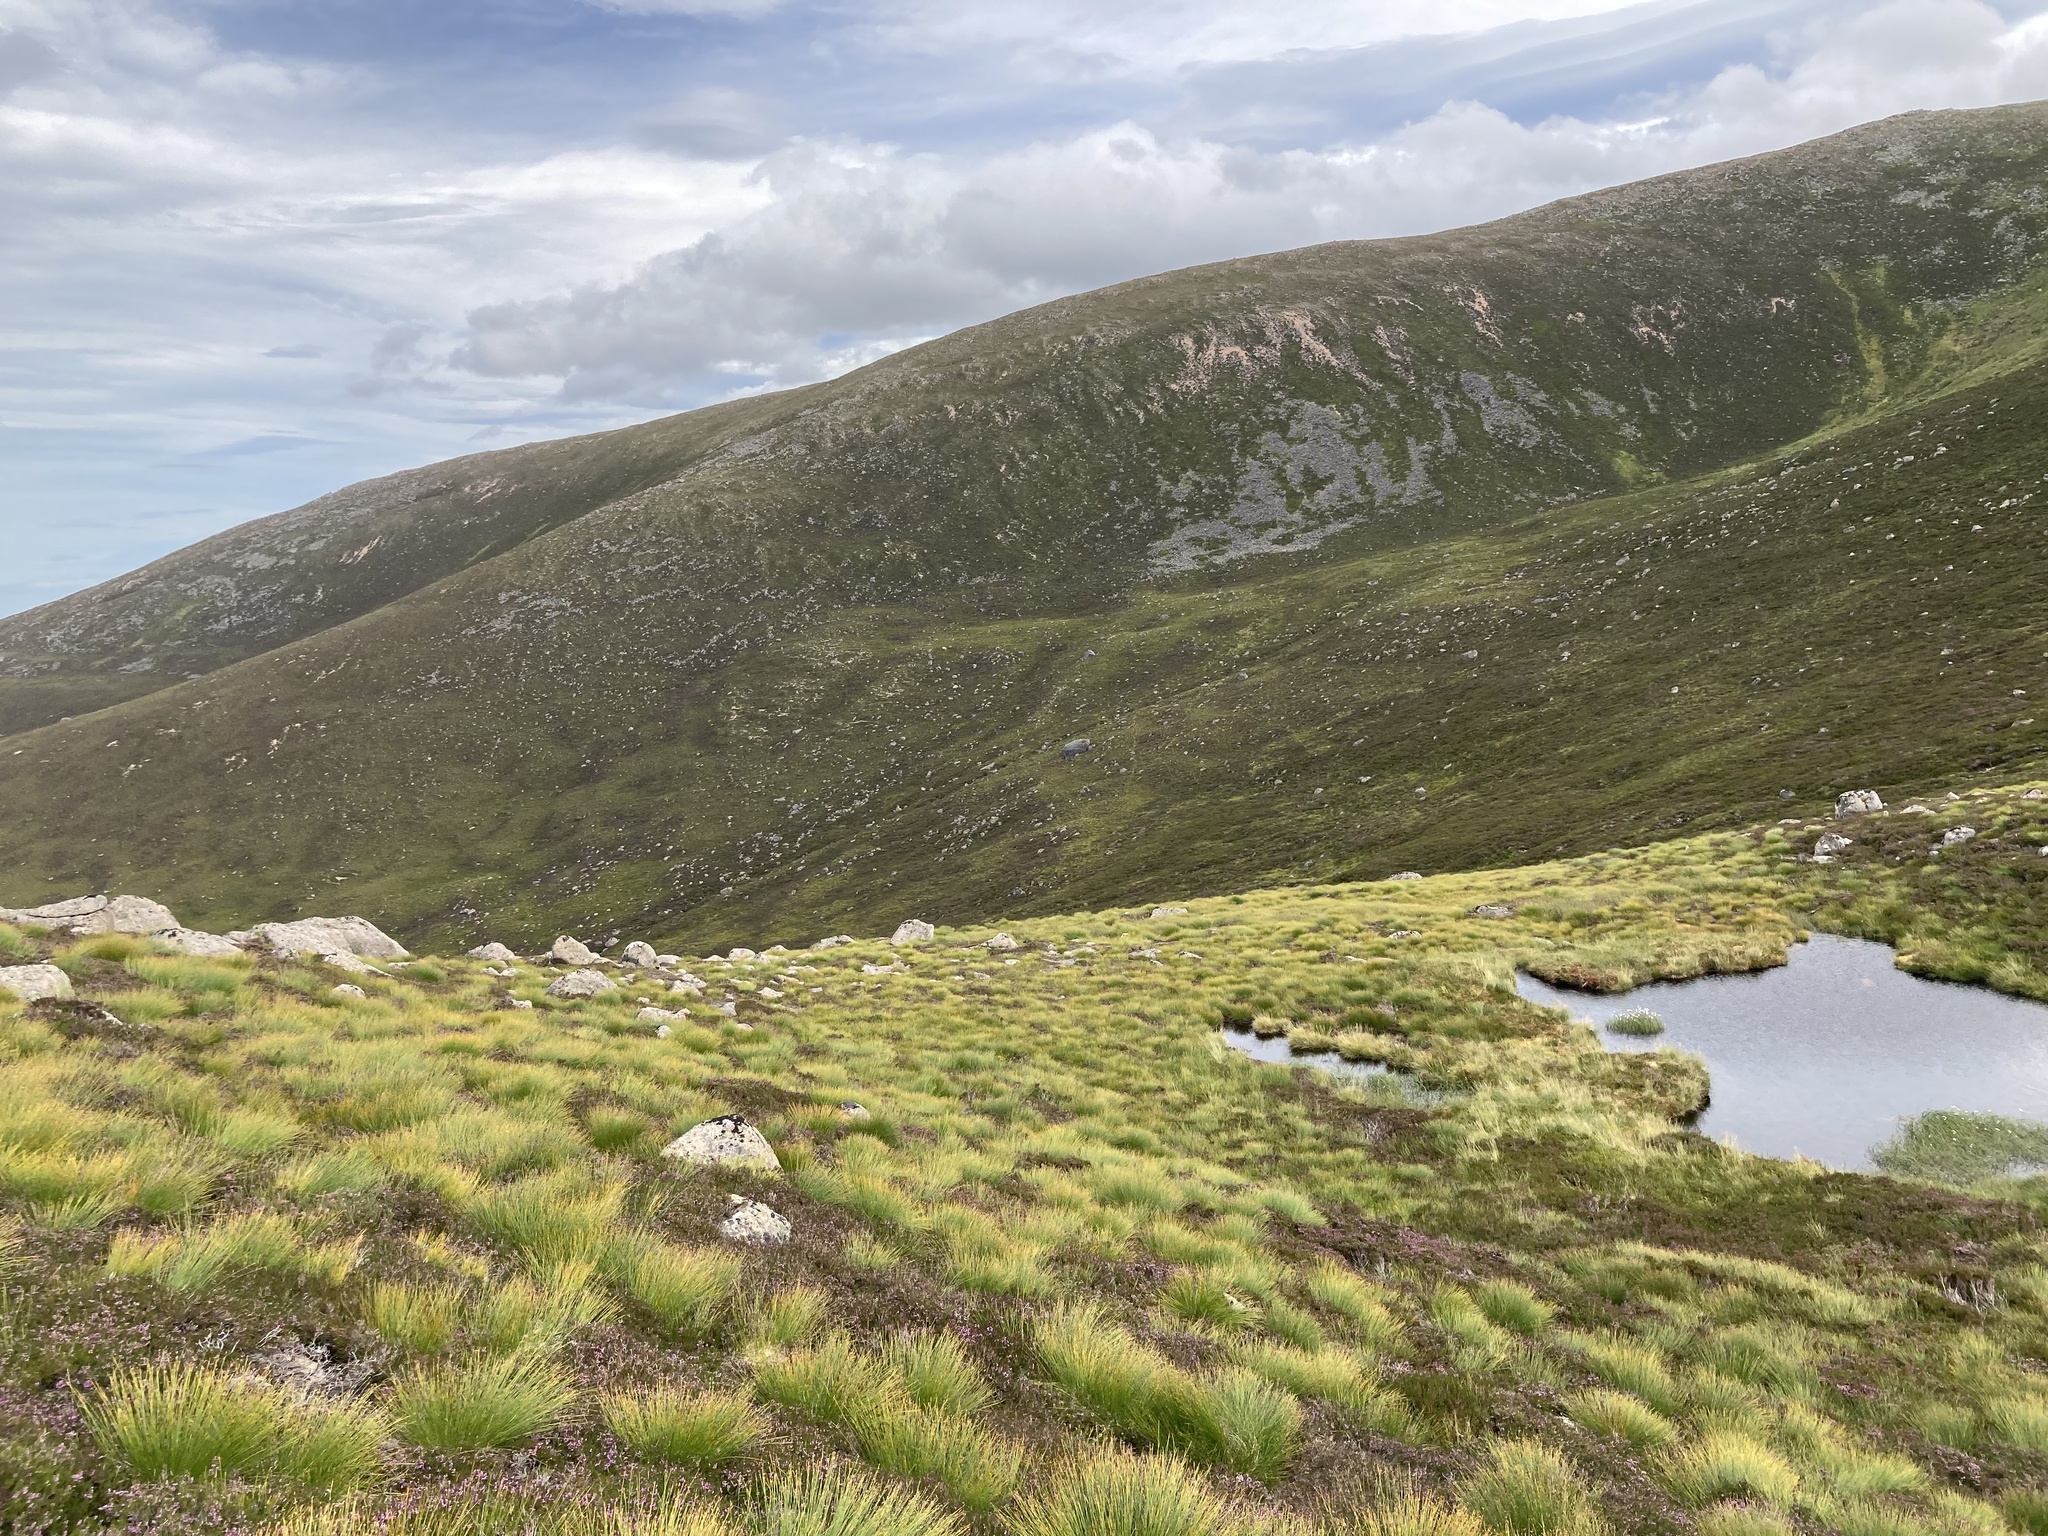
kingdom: Animalia
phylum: Chordata
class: Amphibia
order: Anura
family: Ranidae
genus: Rana
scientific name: Rana temporaria
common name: Common frog
